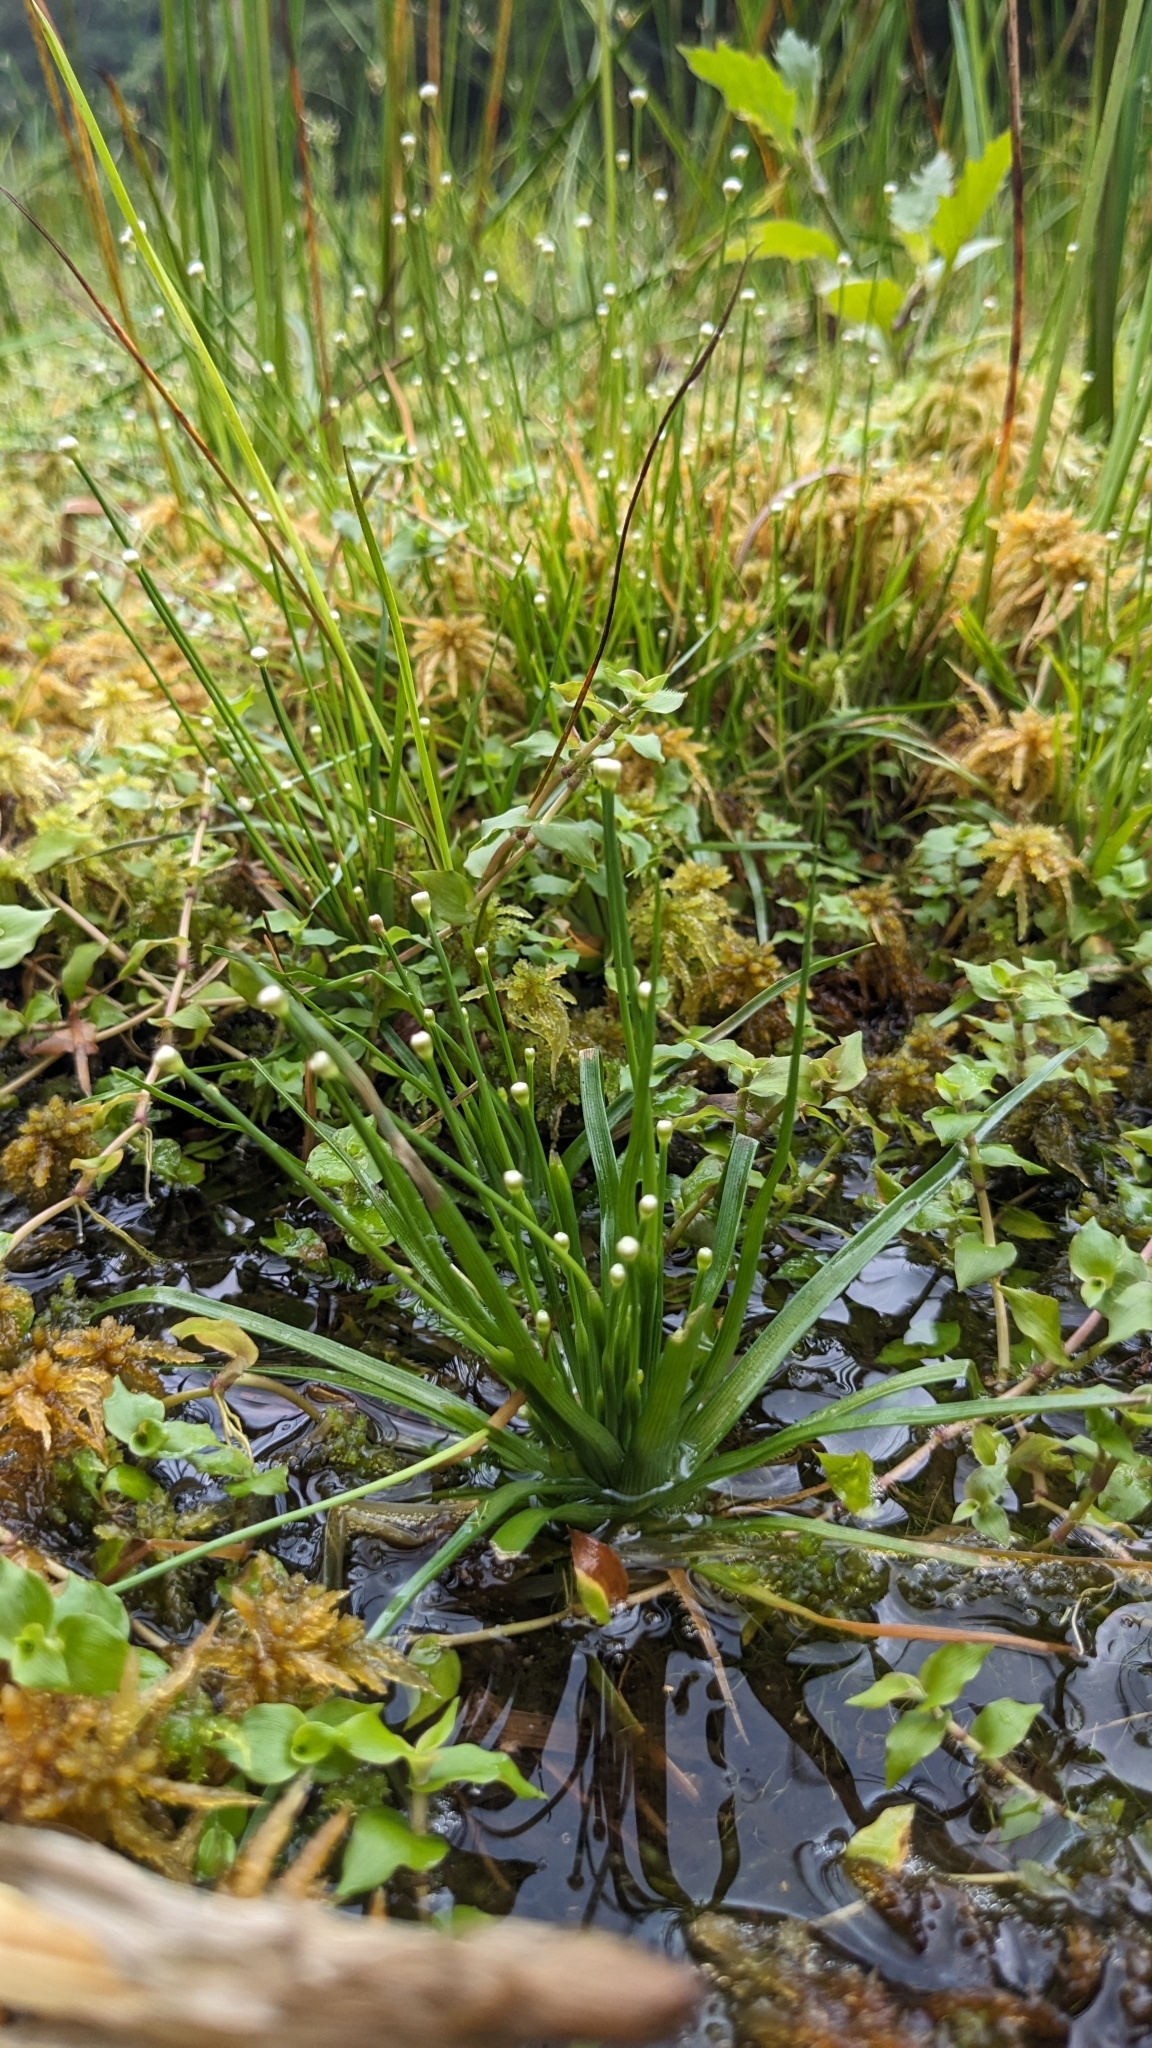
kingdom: Plantae
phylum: Tracheophyta
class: Liliopsida
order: Poales
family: Eriocaulaceae
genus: Eriocaulon
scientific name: Eriocaulon buergerianum
